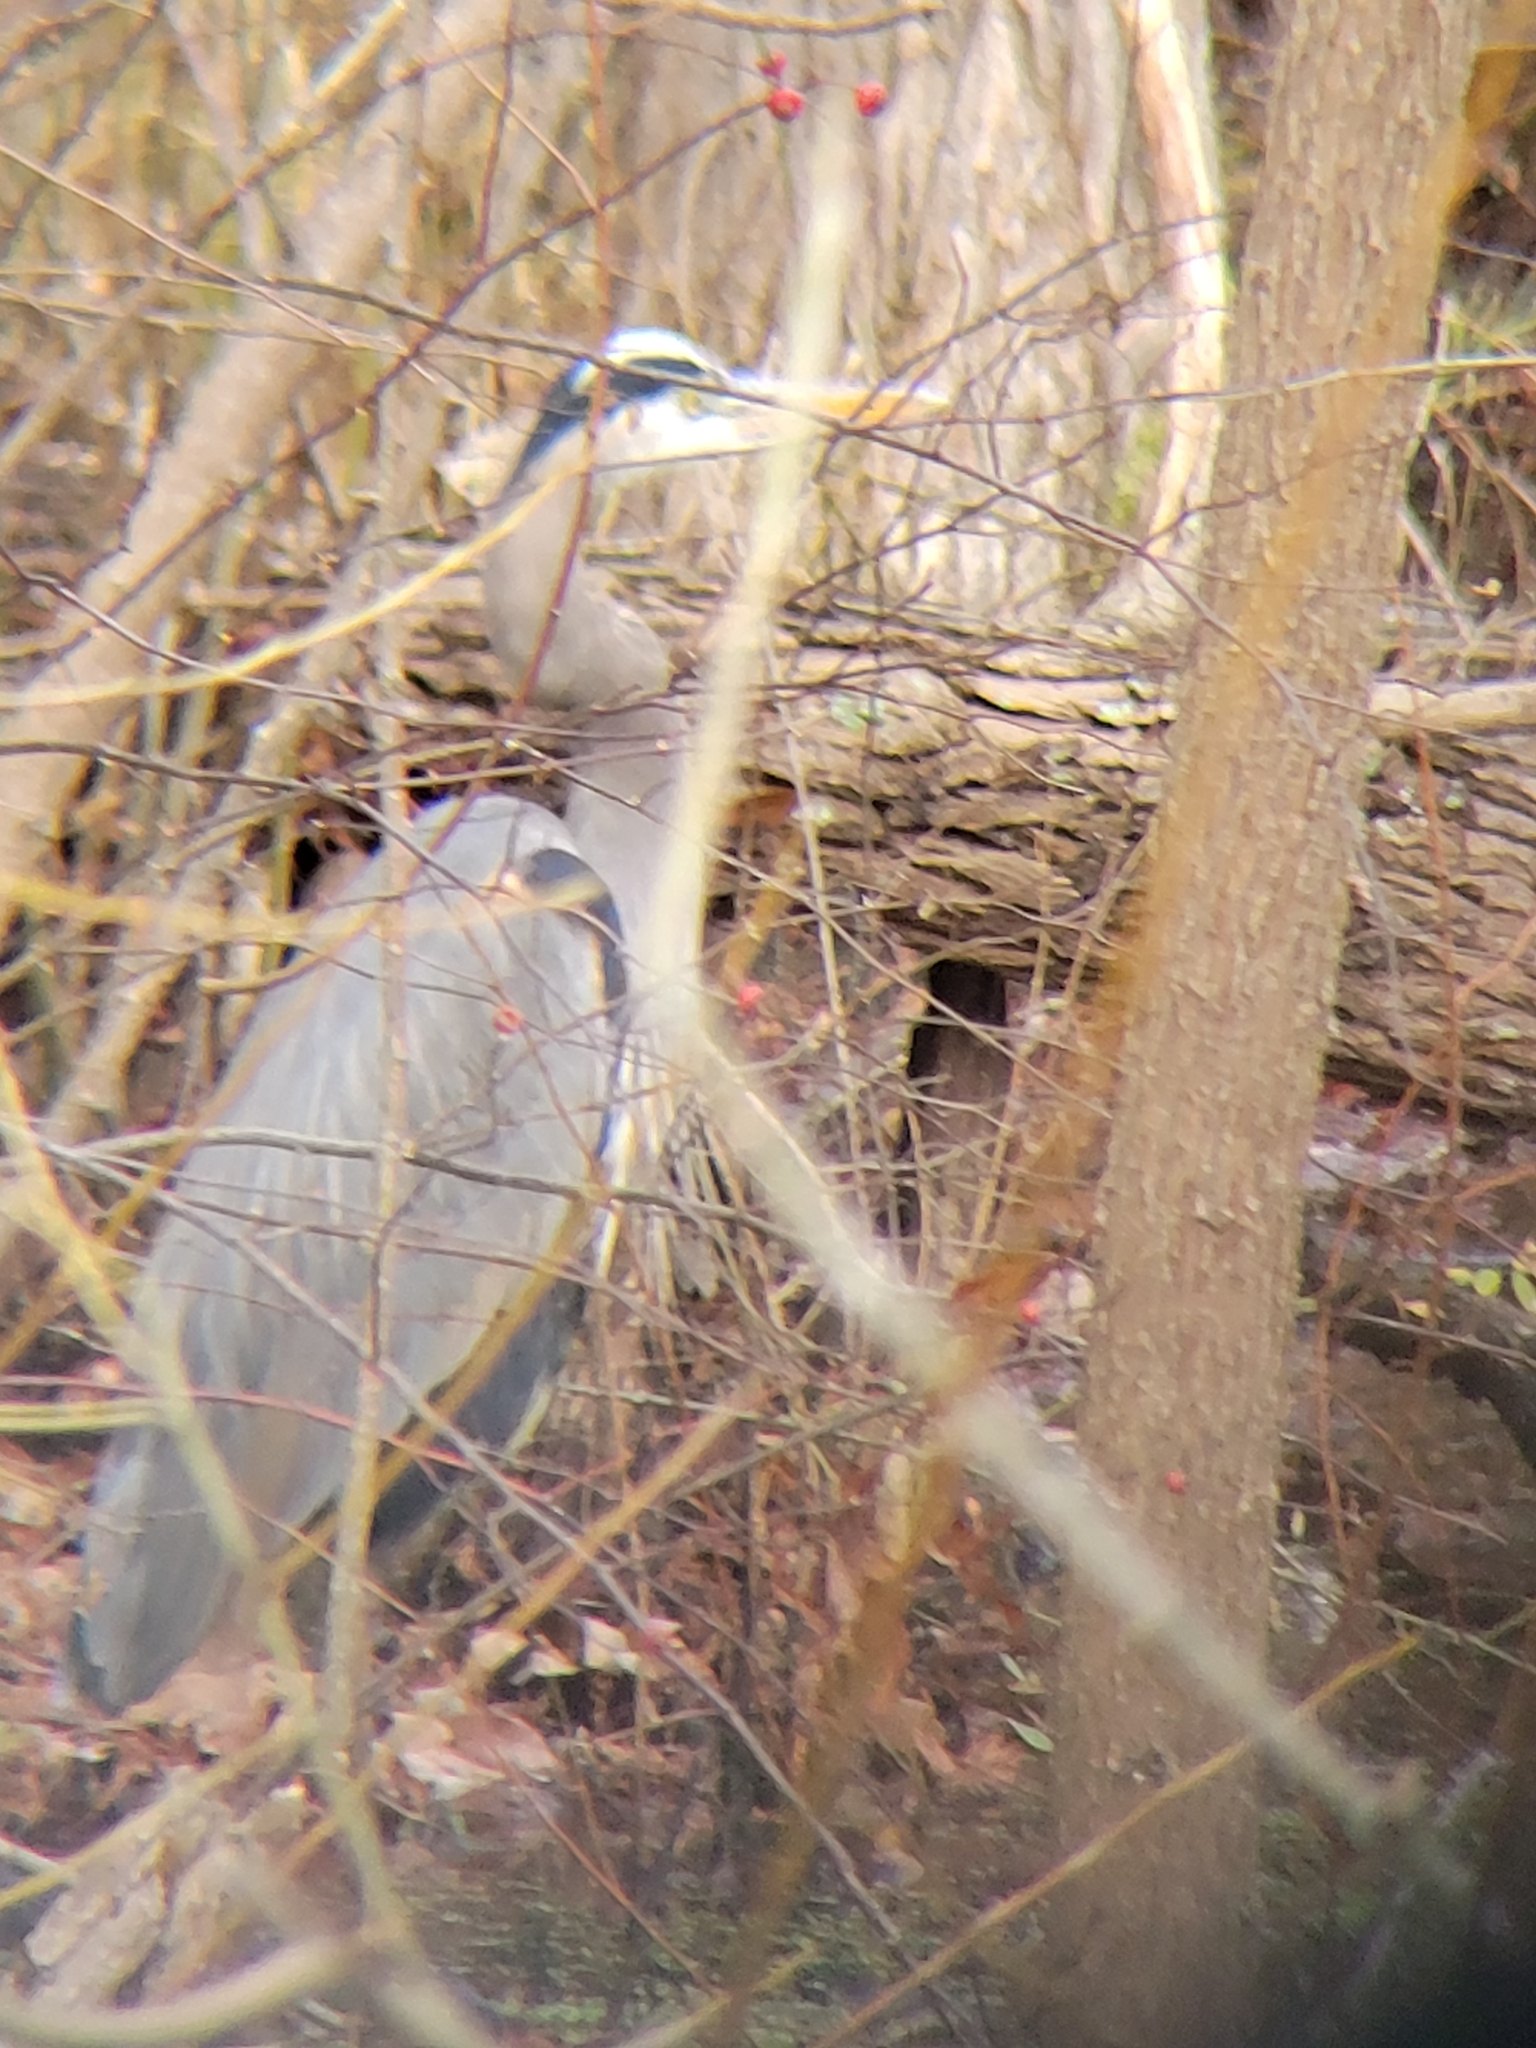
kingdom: Animalia
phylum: Chordata
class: Aves
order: Pelecaniformes
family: Ardeidae
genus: Ardea
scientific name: Ardea herodias
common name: Great blue heron
